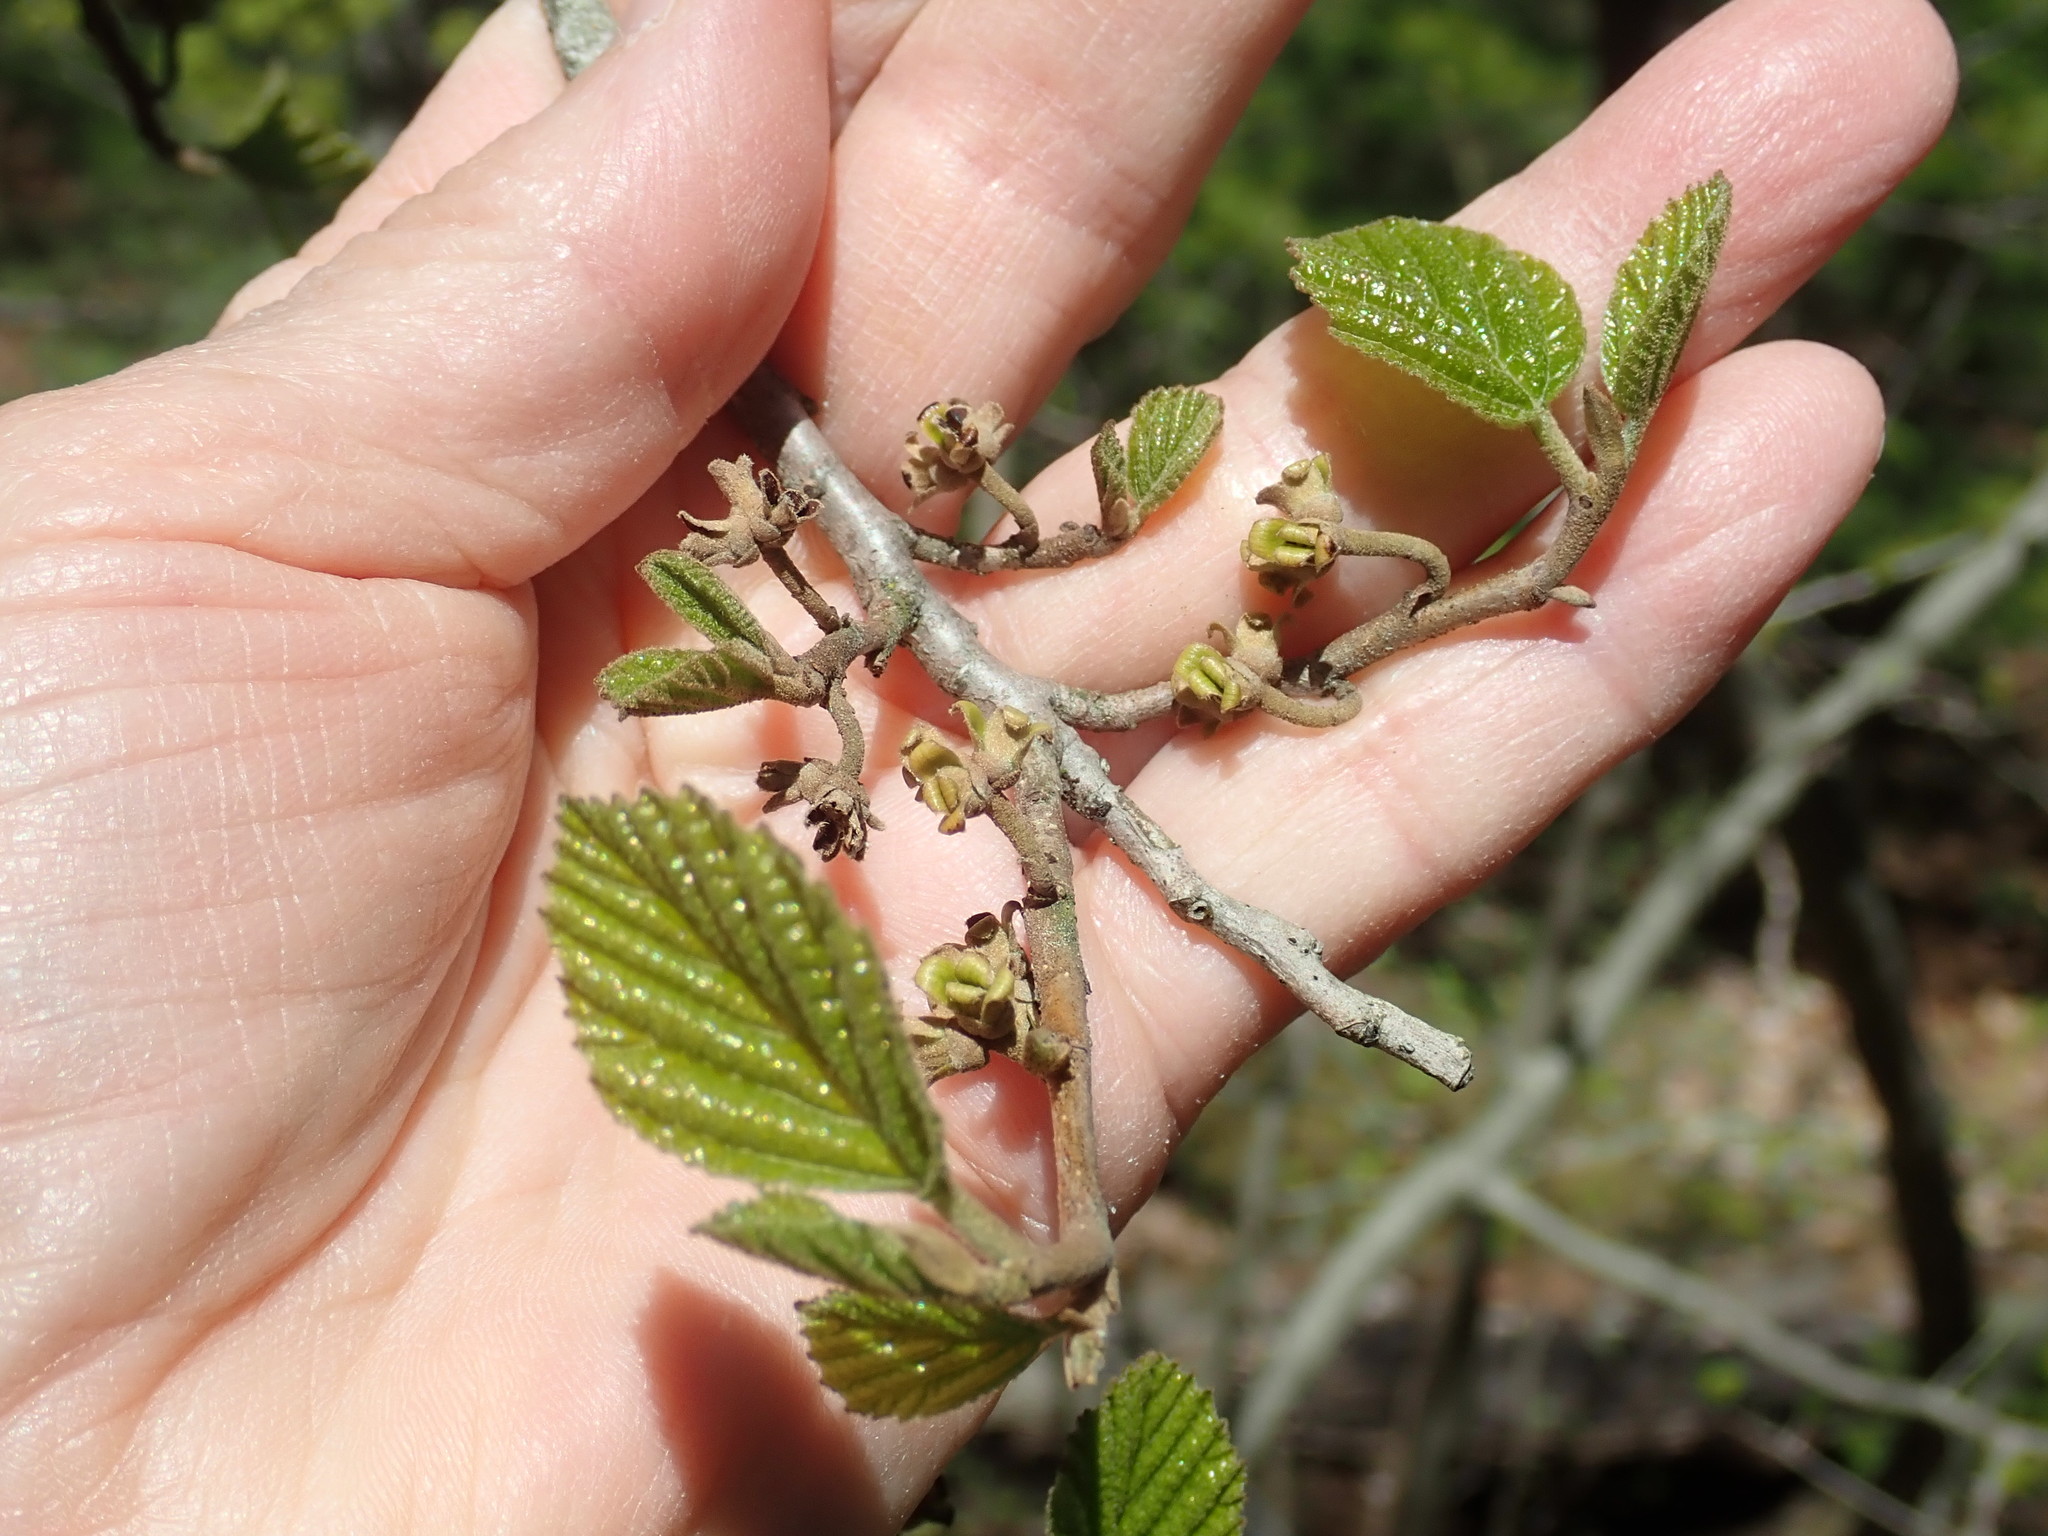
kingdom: Plantae
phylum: Tracheophyta
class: Magnoliopsida
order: Saxifragales
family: Hamamelidaceae
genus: Hamamelis
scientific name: Hamamelis virginiana
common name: Witch-hazel
